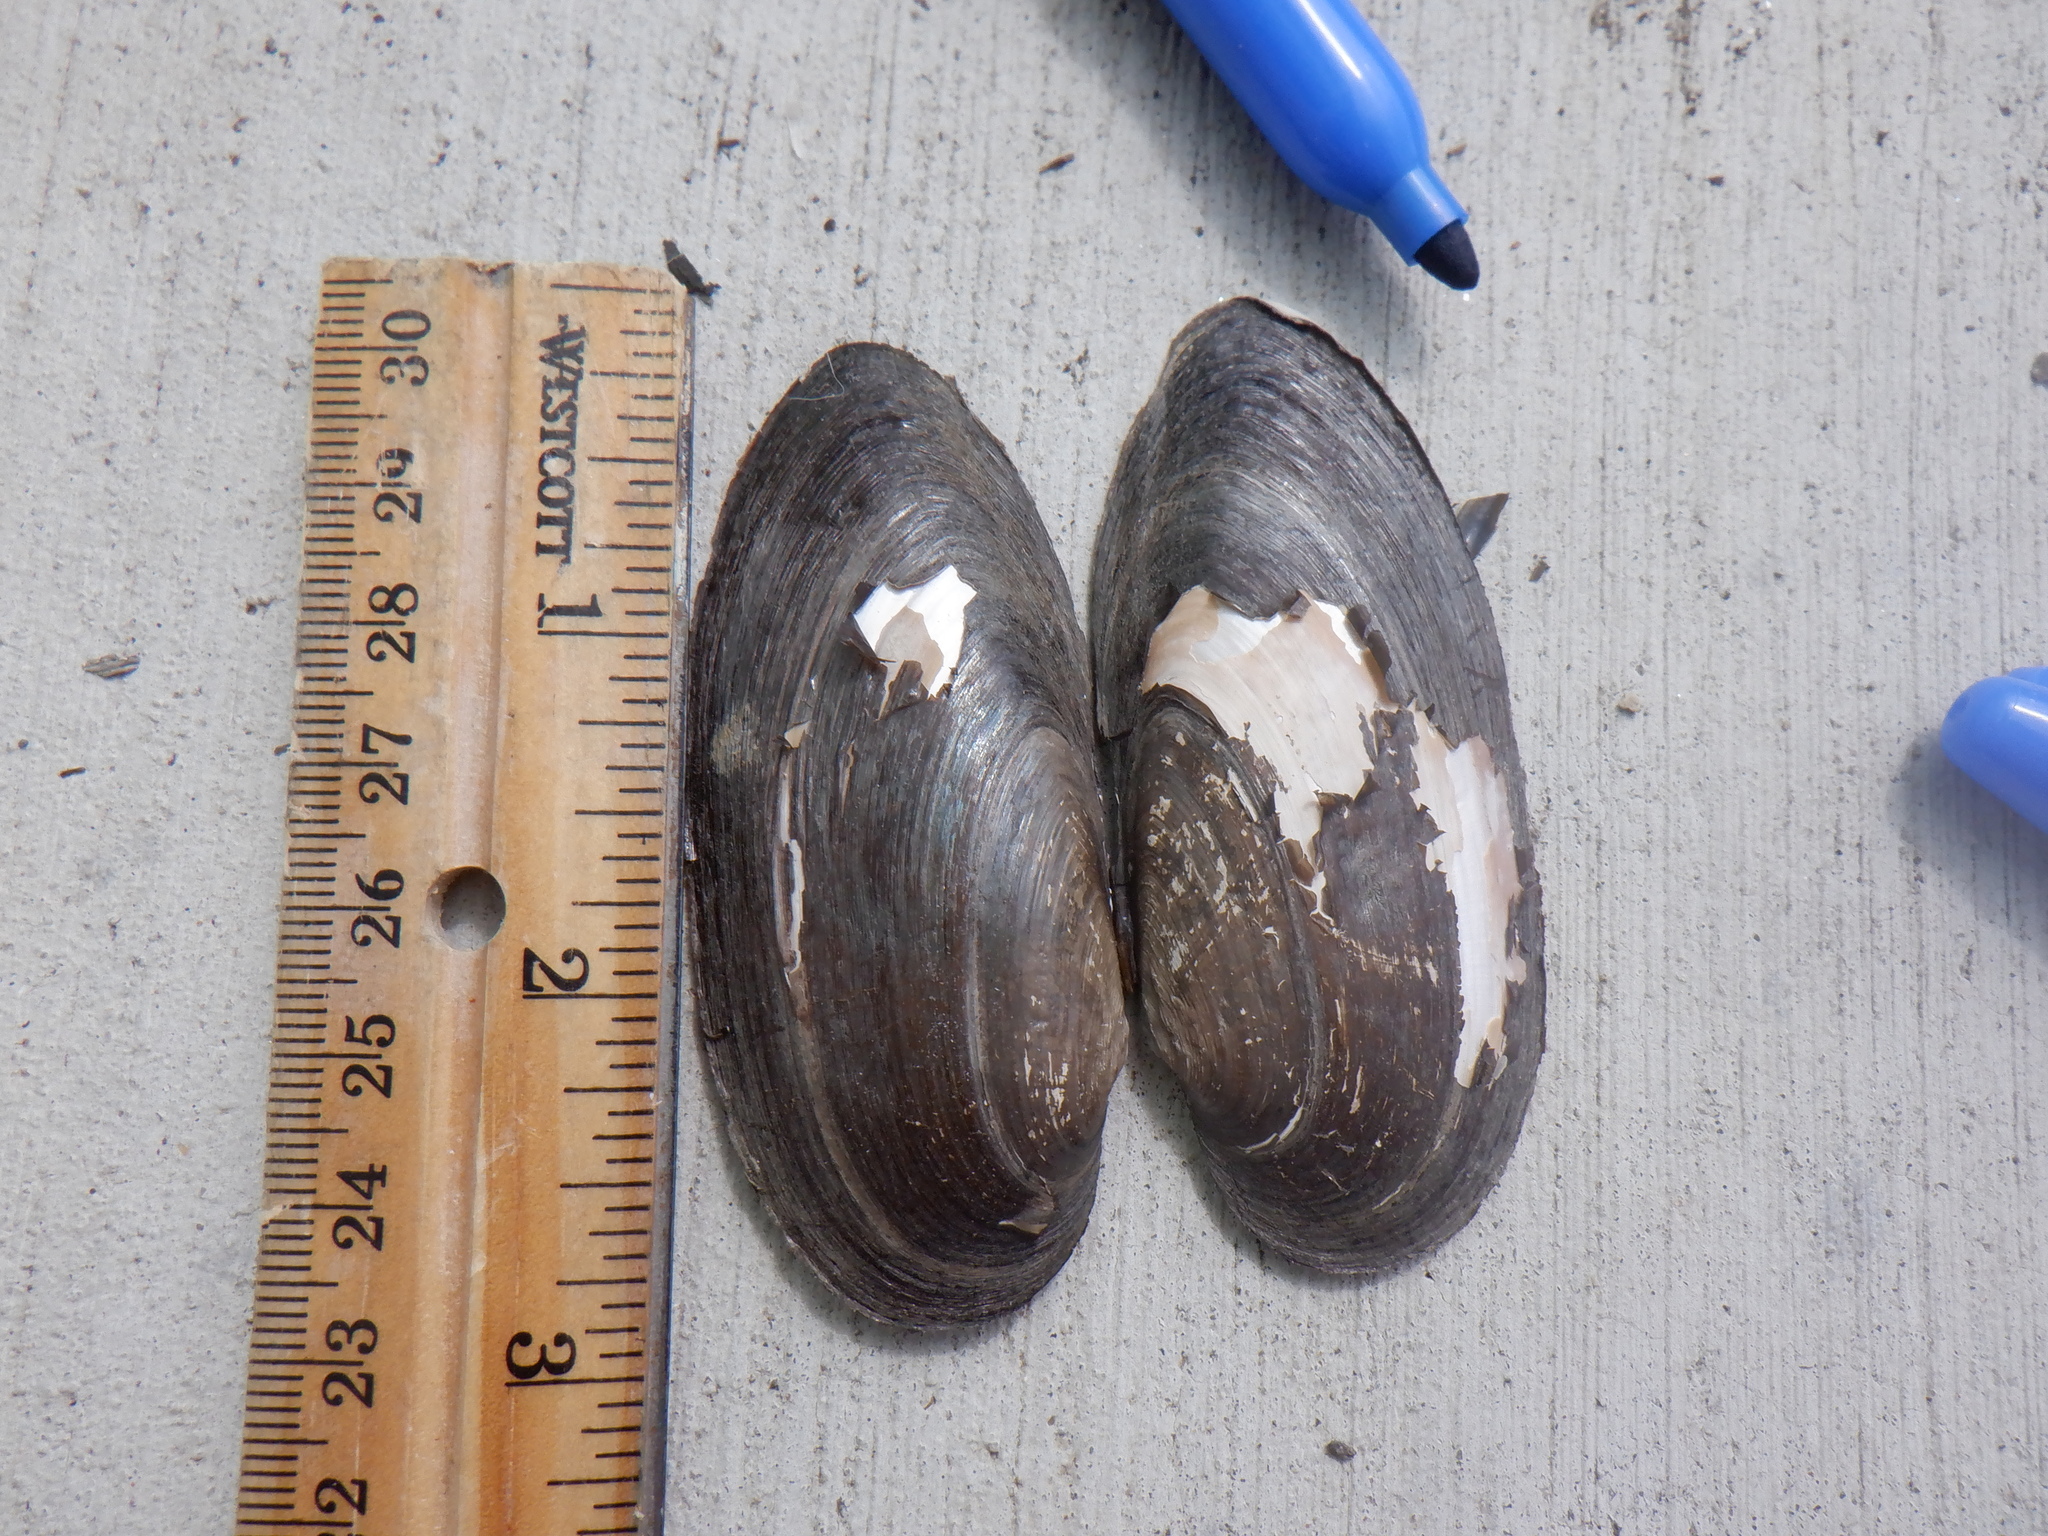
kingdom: Animalia
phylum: Mollusca
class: Bivalvia
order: Unionida
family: Unionidae
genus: Eurynia
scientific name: Eurynia dilatata
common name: Spike
